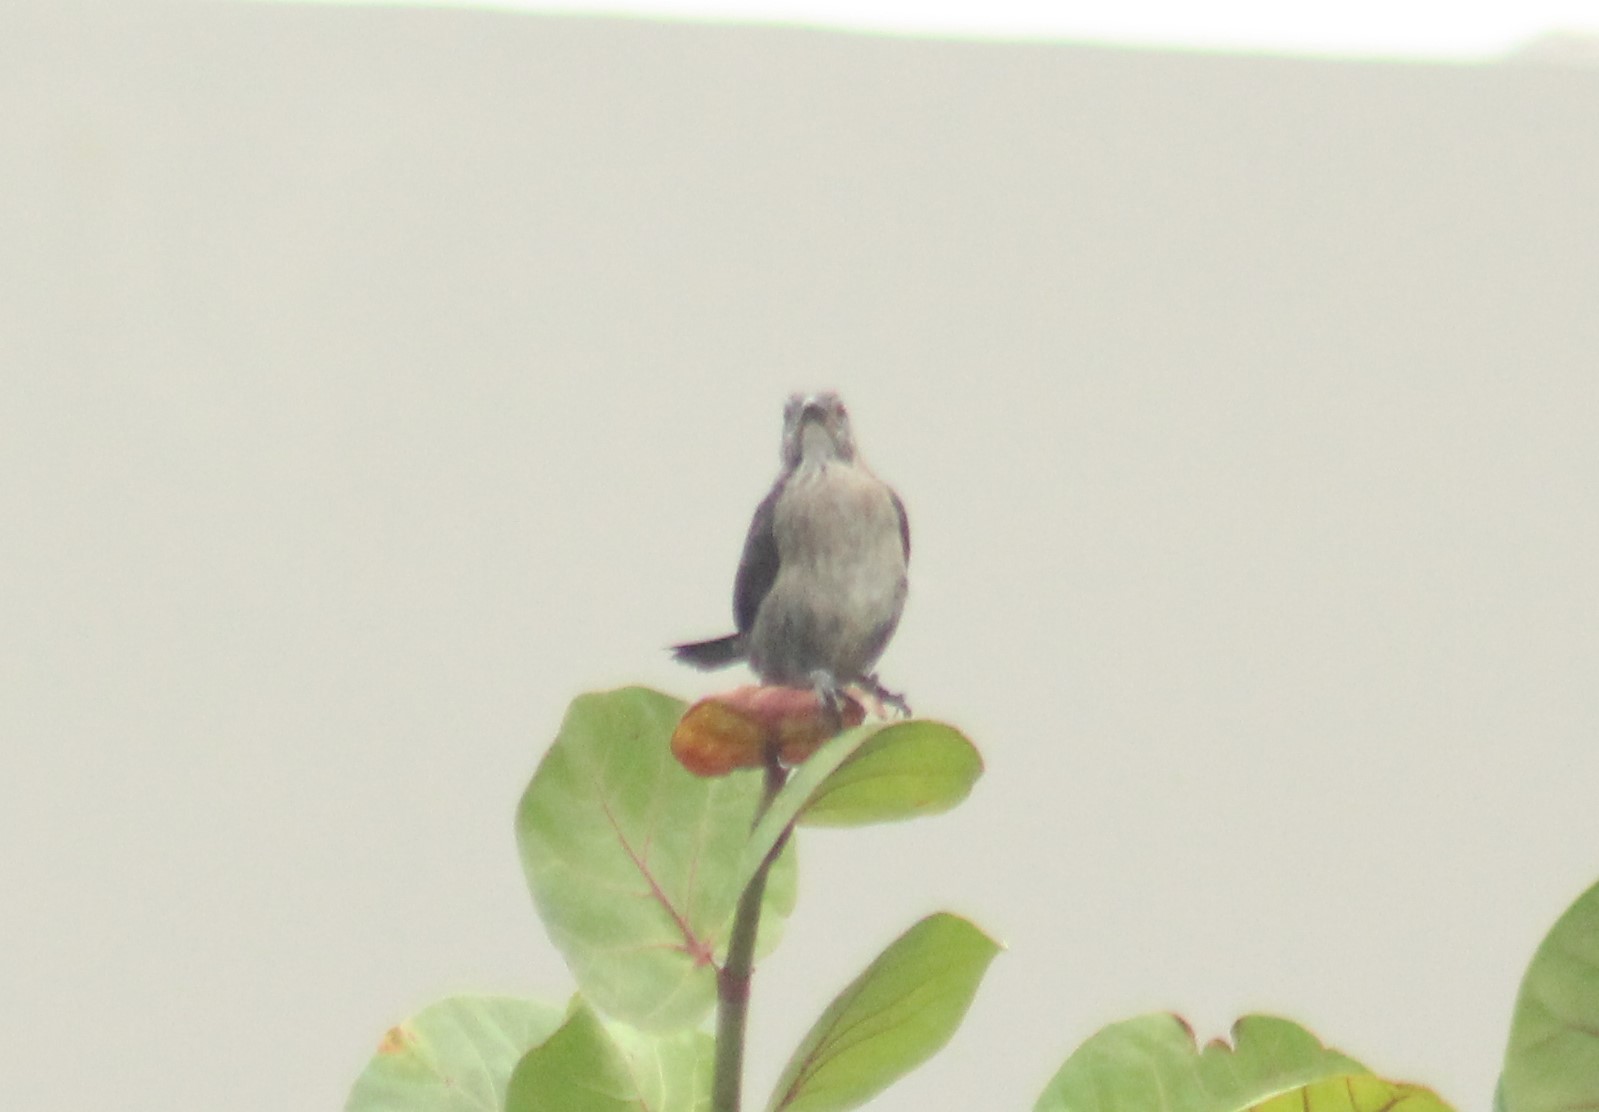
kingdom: Animalia
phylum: Chordata
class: Aves
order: Passeriformes
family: Icteridae
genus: Quiscalus
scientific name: Quiscalus lugubris
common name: Carib grackle
